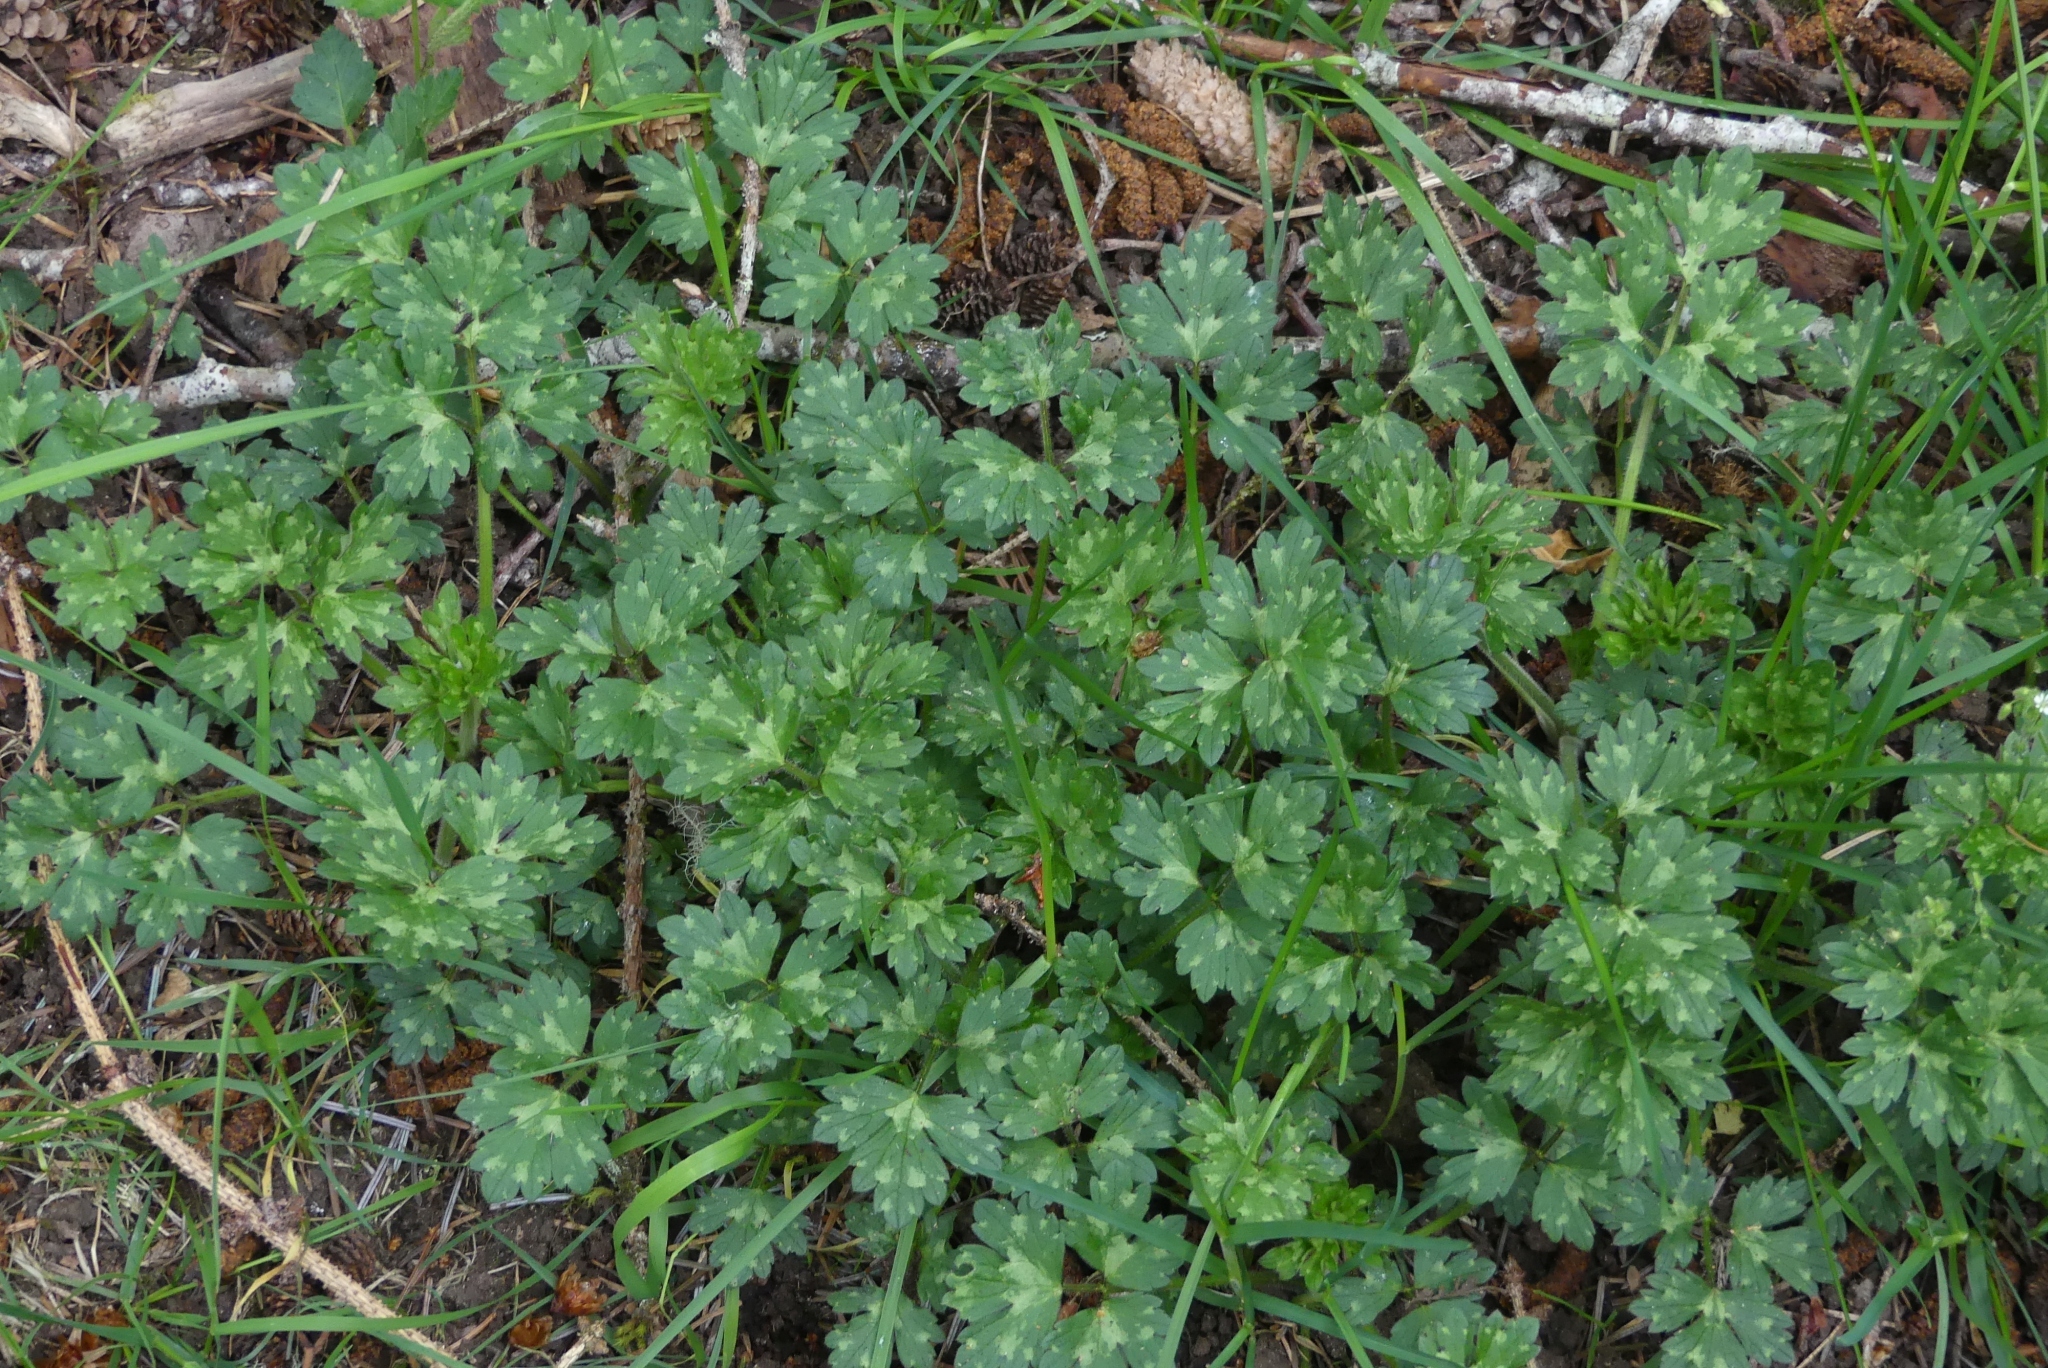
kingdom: Plantae
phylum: Tracheophyta
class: Magnoliopsida
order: Ranunculales
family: Ranunculaceae
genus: Ranunculus
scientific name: Ranunculus repens
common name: Creeping buttercup
